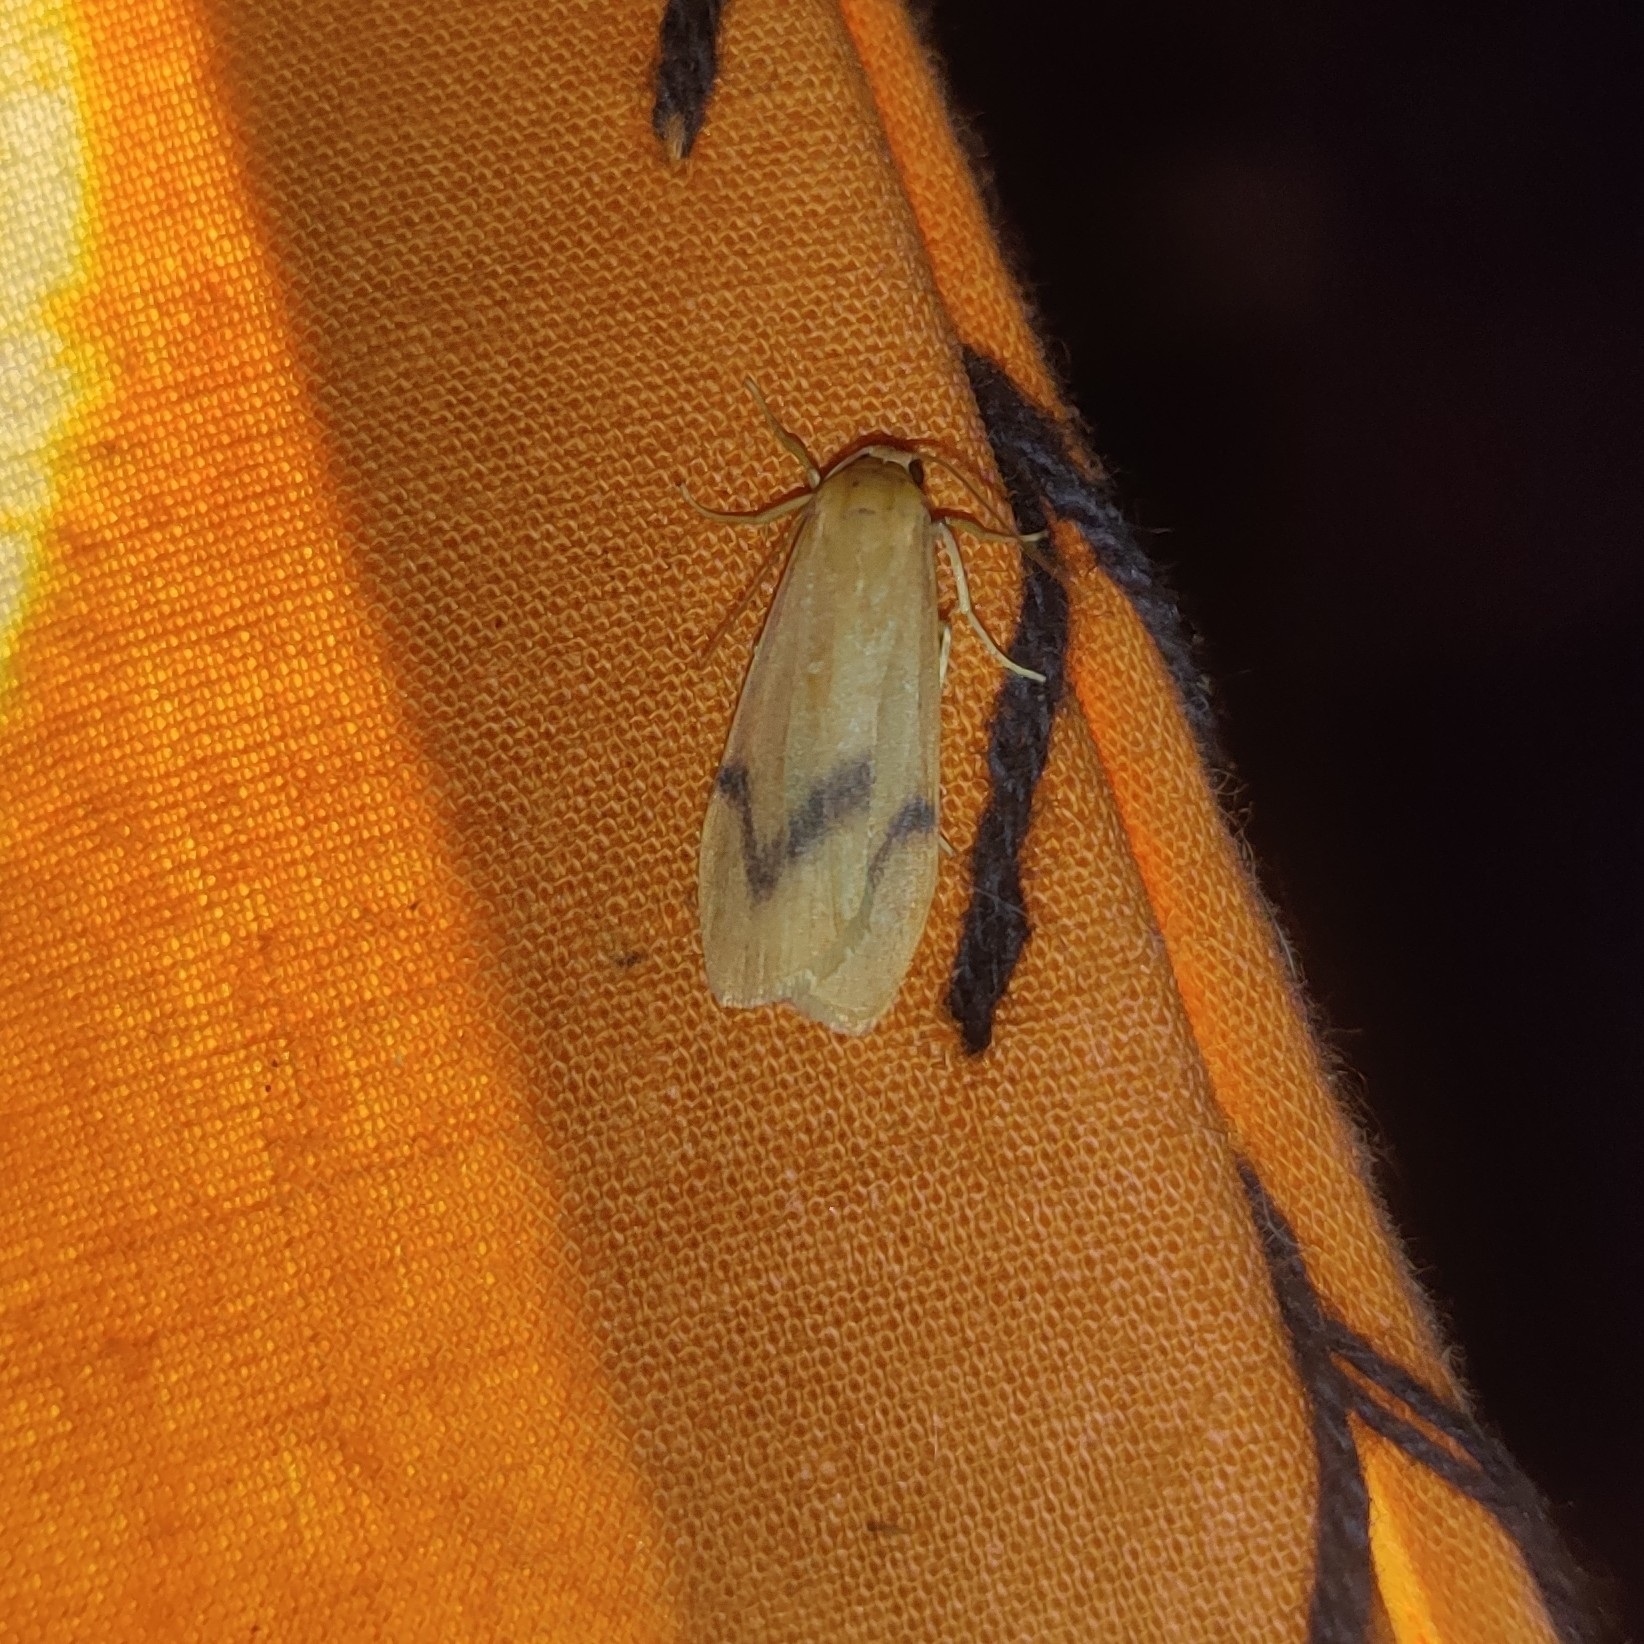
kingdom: Animalia
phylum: Arthropoda
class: Insecta
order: Lepidoptera
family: Erebidae
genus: Dolgoma
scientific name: Dolgoma angulifera
